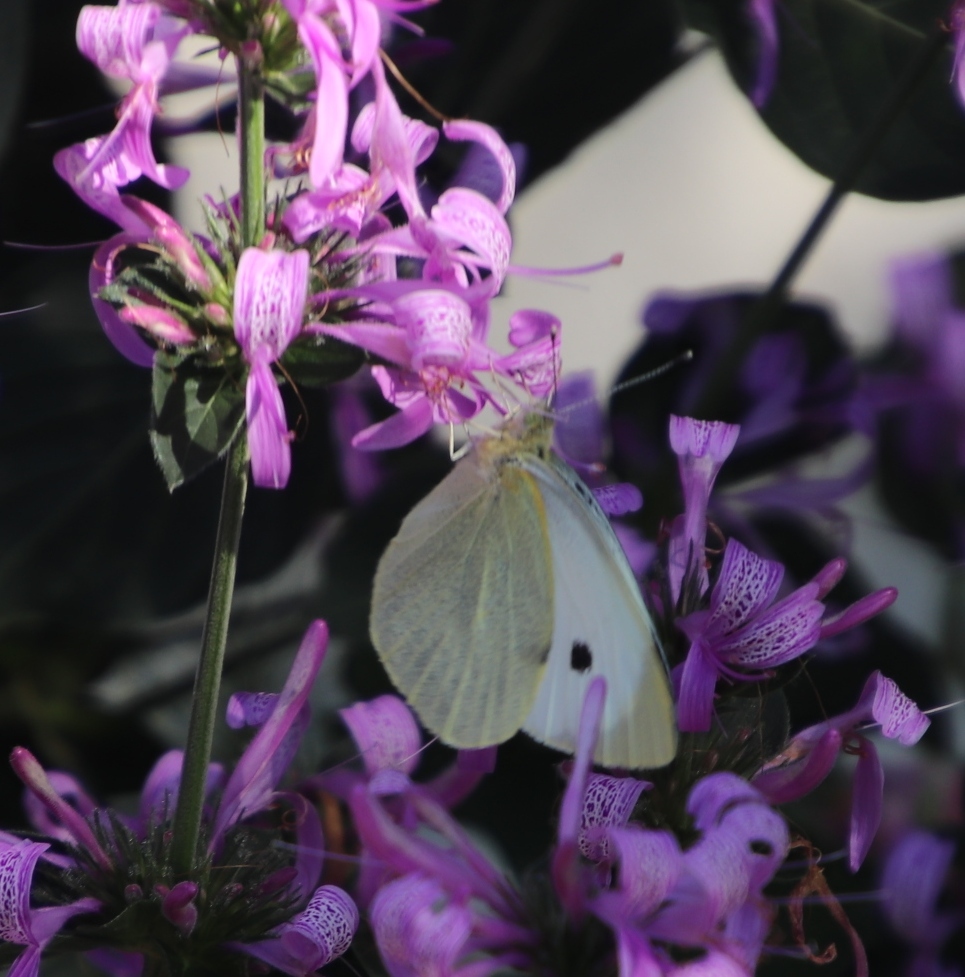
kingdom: Animalia
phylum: Arthropoda
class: Insecta
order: Lepidoptera
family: Pieridae
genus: Pieris
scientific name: Pieris brassicae
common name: Large white
